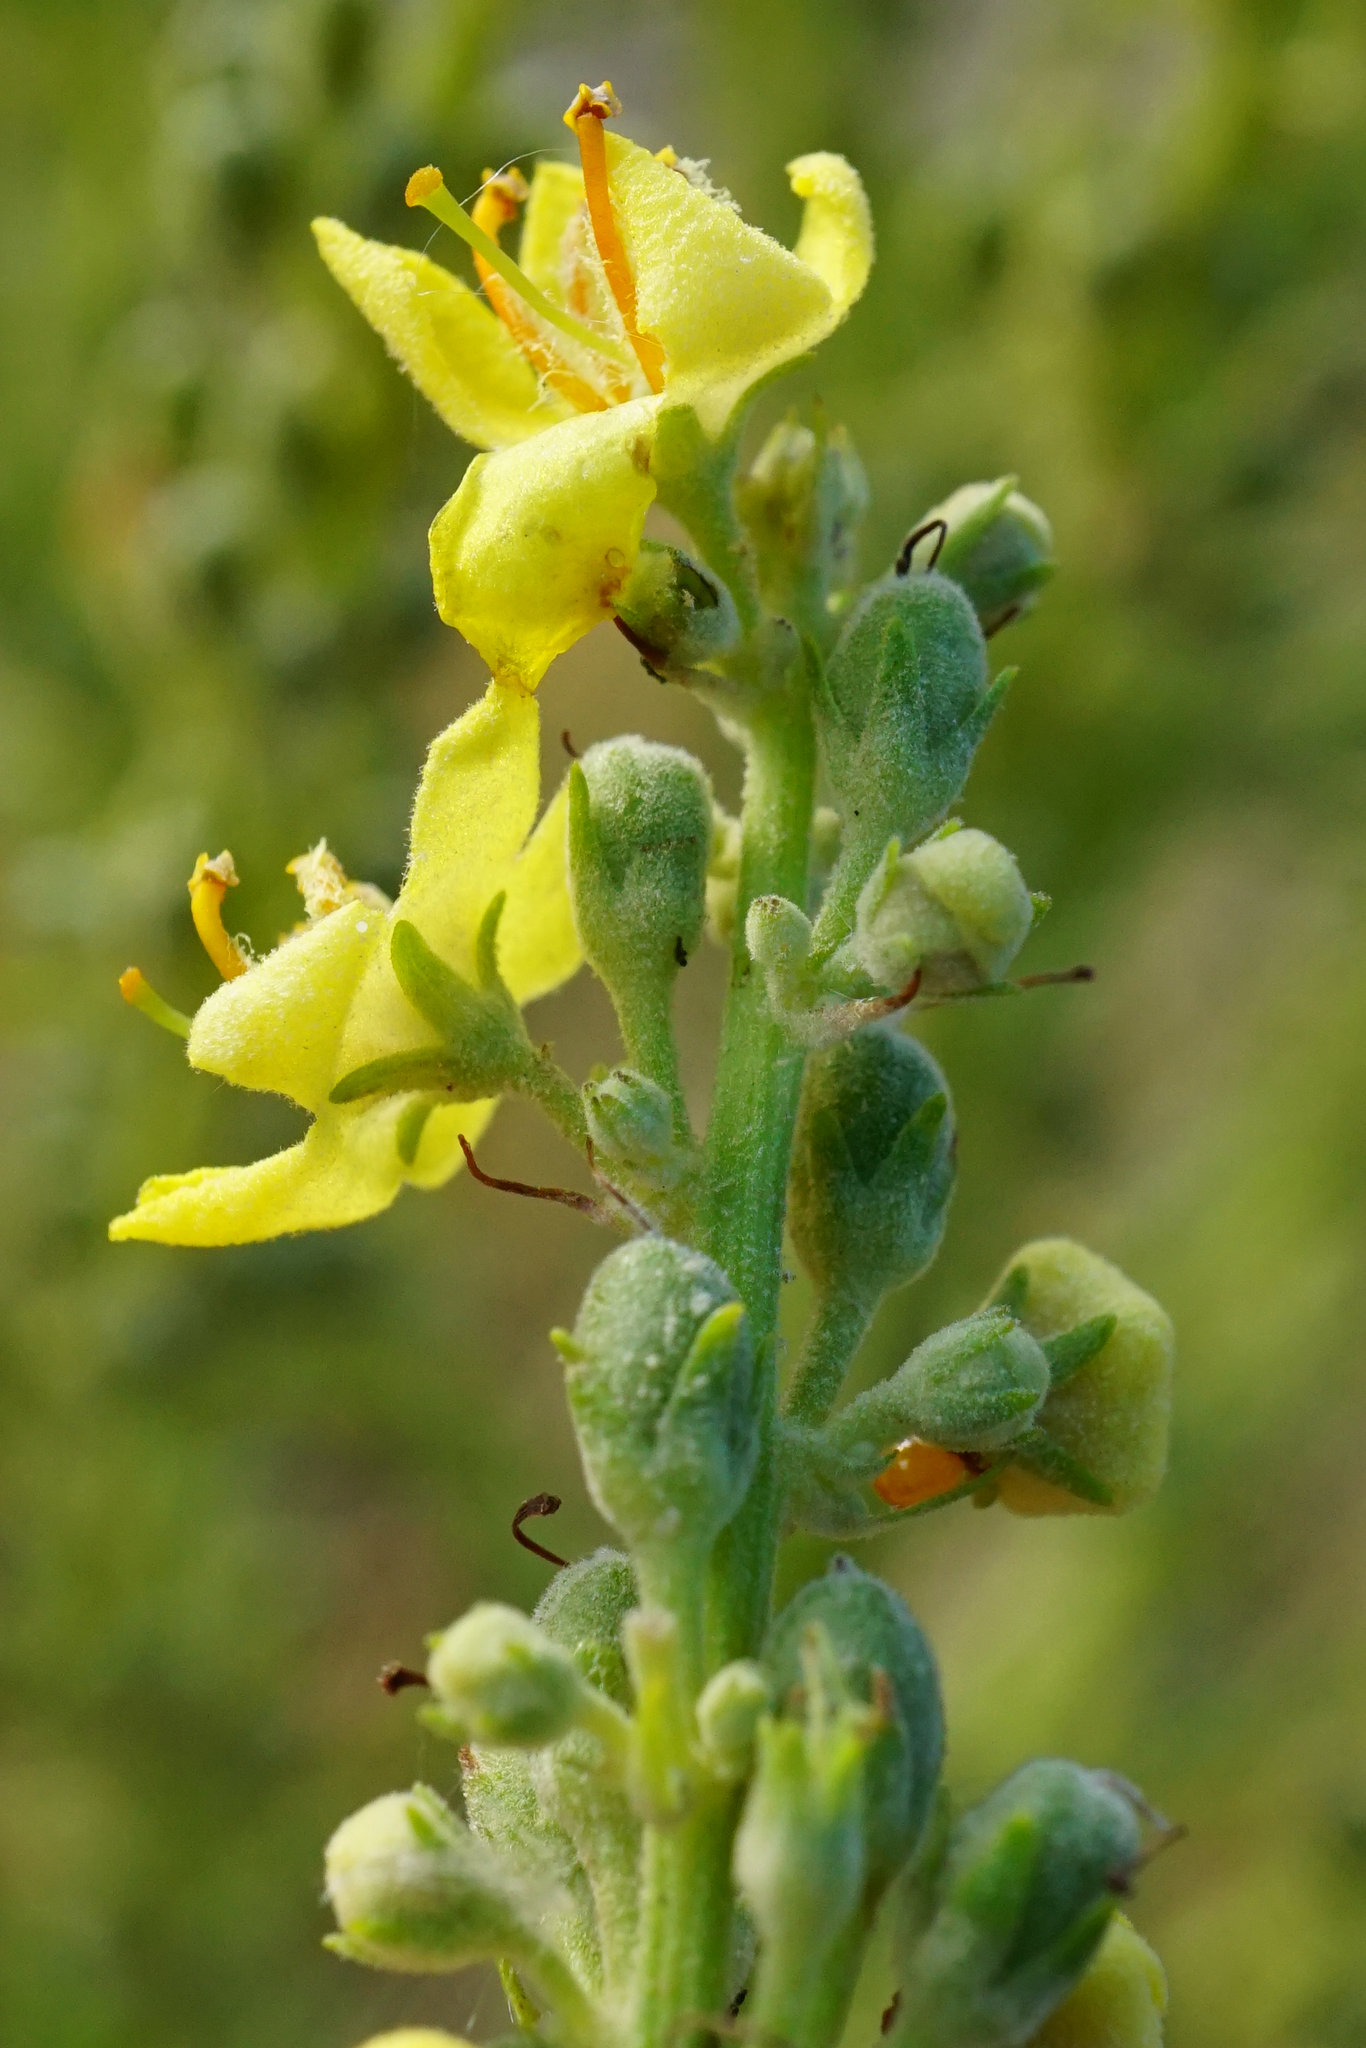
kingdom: Plantae
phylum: Tracheophyta
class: Magnoliopsida
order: Lamiales
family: Scrophulariaceae
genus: Verbascum
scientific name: Verbascum lychnitis
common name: White mullein
